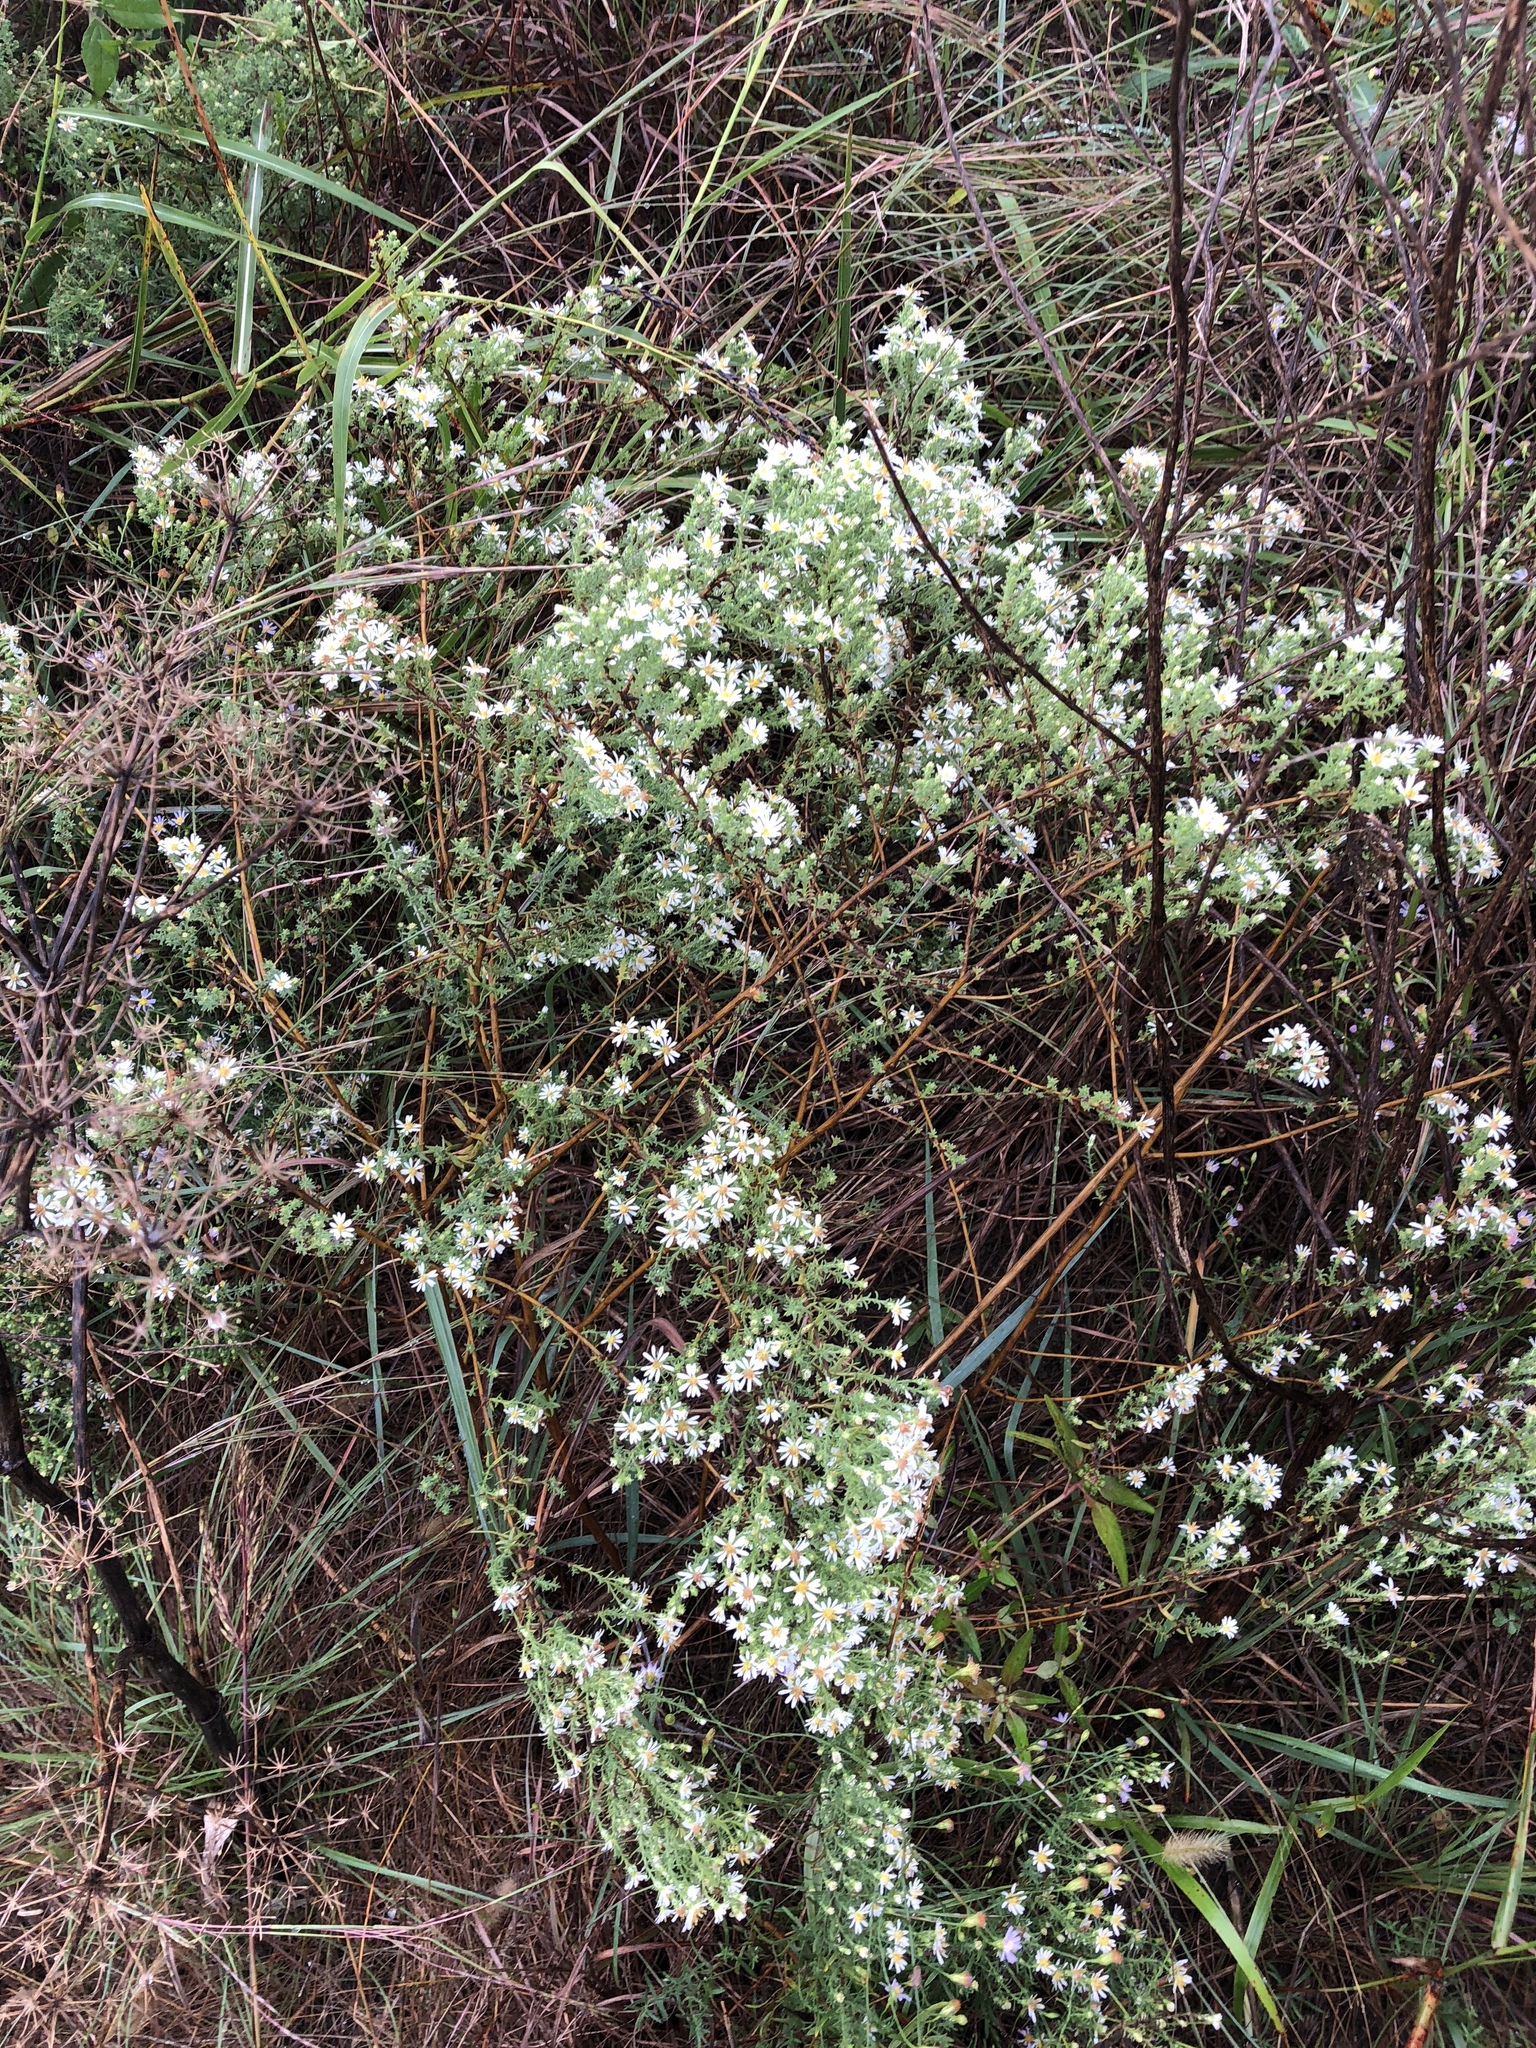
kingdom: Plantae
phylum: Tracheophyta
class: Magnoliopsida
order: Asterales
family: Asteraceae
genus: Symphyotrichum
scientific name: Symphyotrichum ericoides
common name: Heath aster
